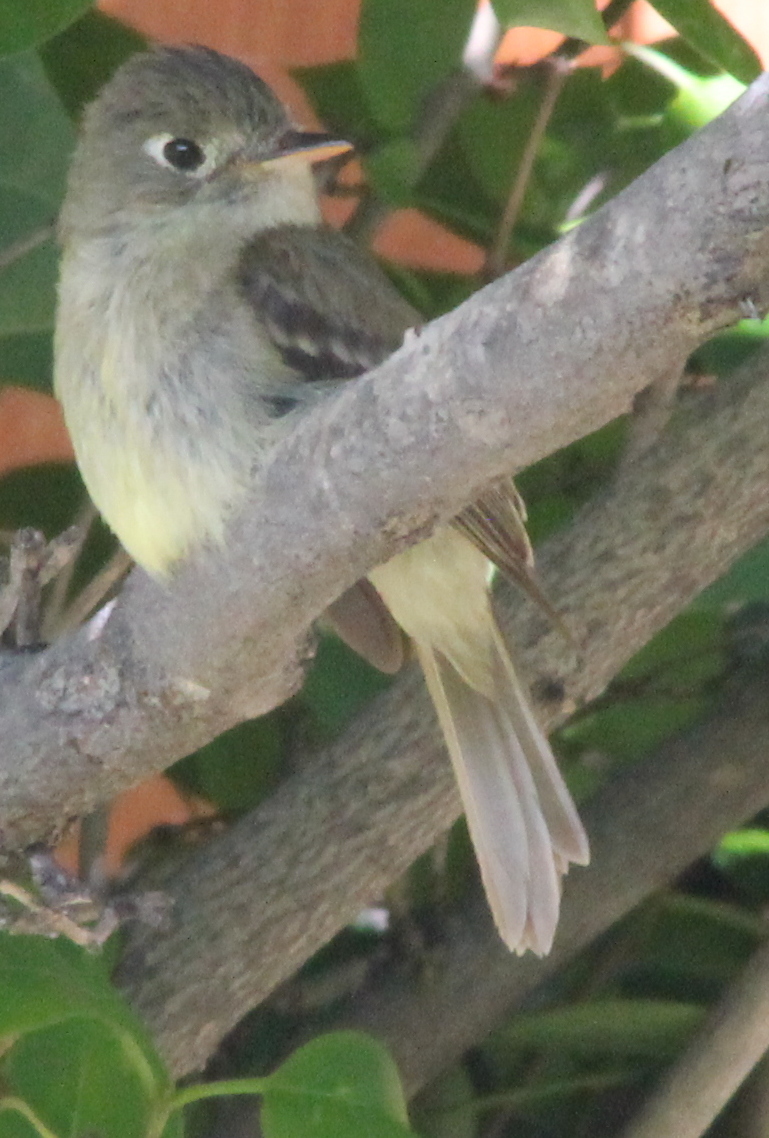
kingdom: Animalia
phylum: Chordata
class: Aves
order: Passeriformes
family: Tyrannidae
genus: Empidonax
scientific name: Empidonax difficilis
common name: Pacific-slope flycatcher
